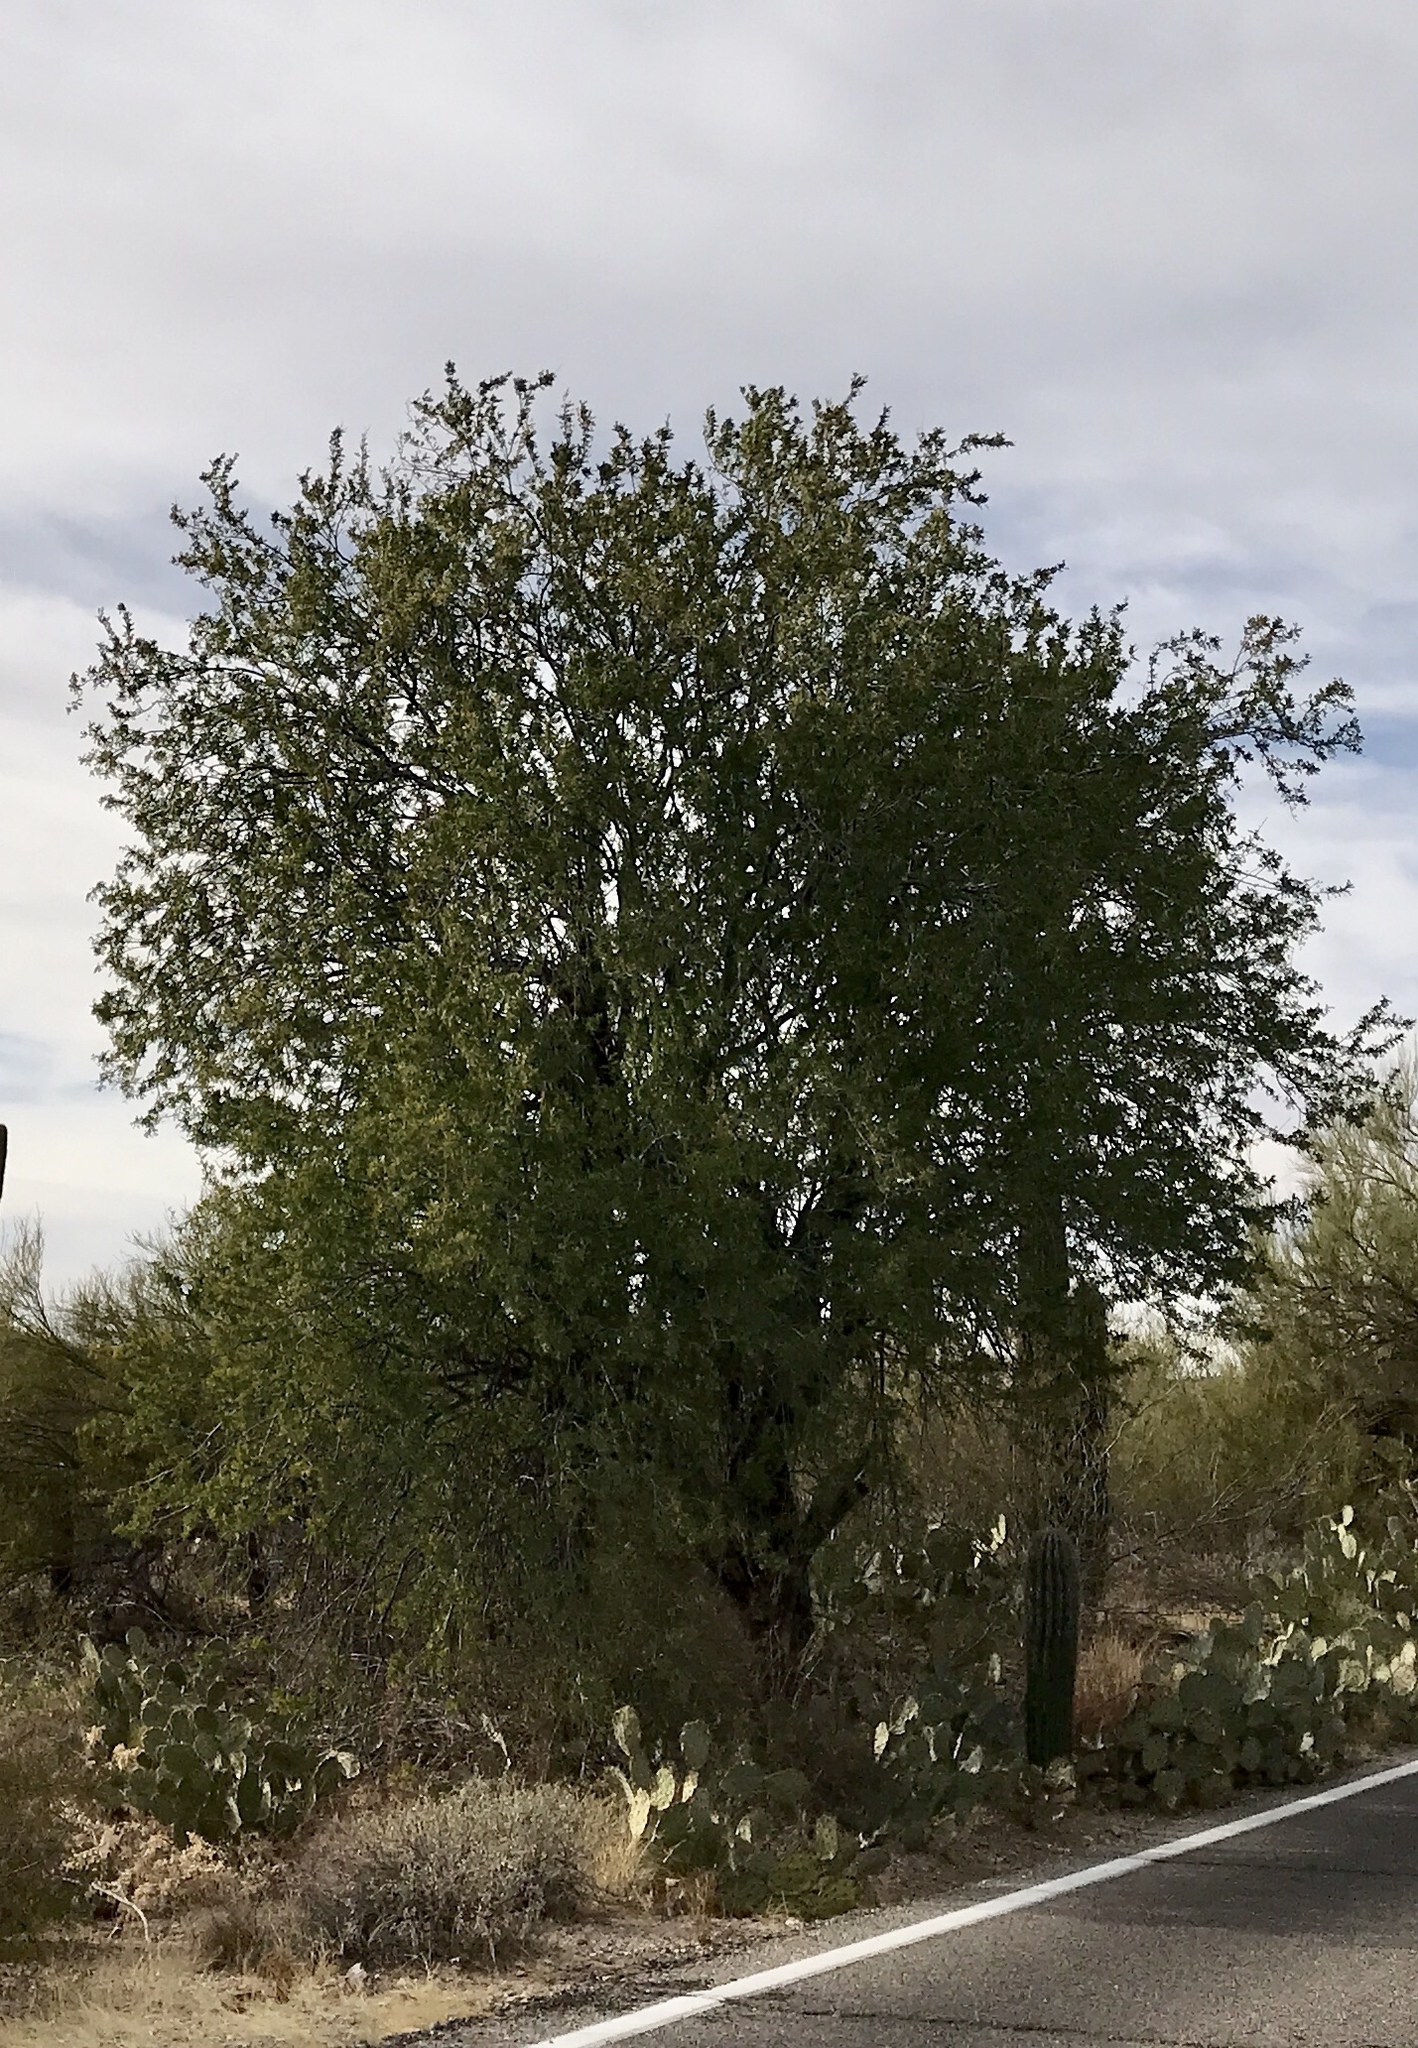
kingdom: Plantae
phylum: Tracheophyta
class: Magnoliopsida
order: Fabales
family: Fabaceae
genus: Olneya
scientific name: Olneya tesota
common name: Desert ironwood
